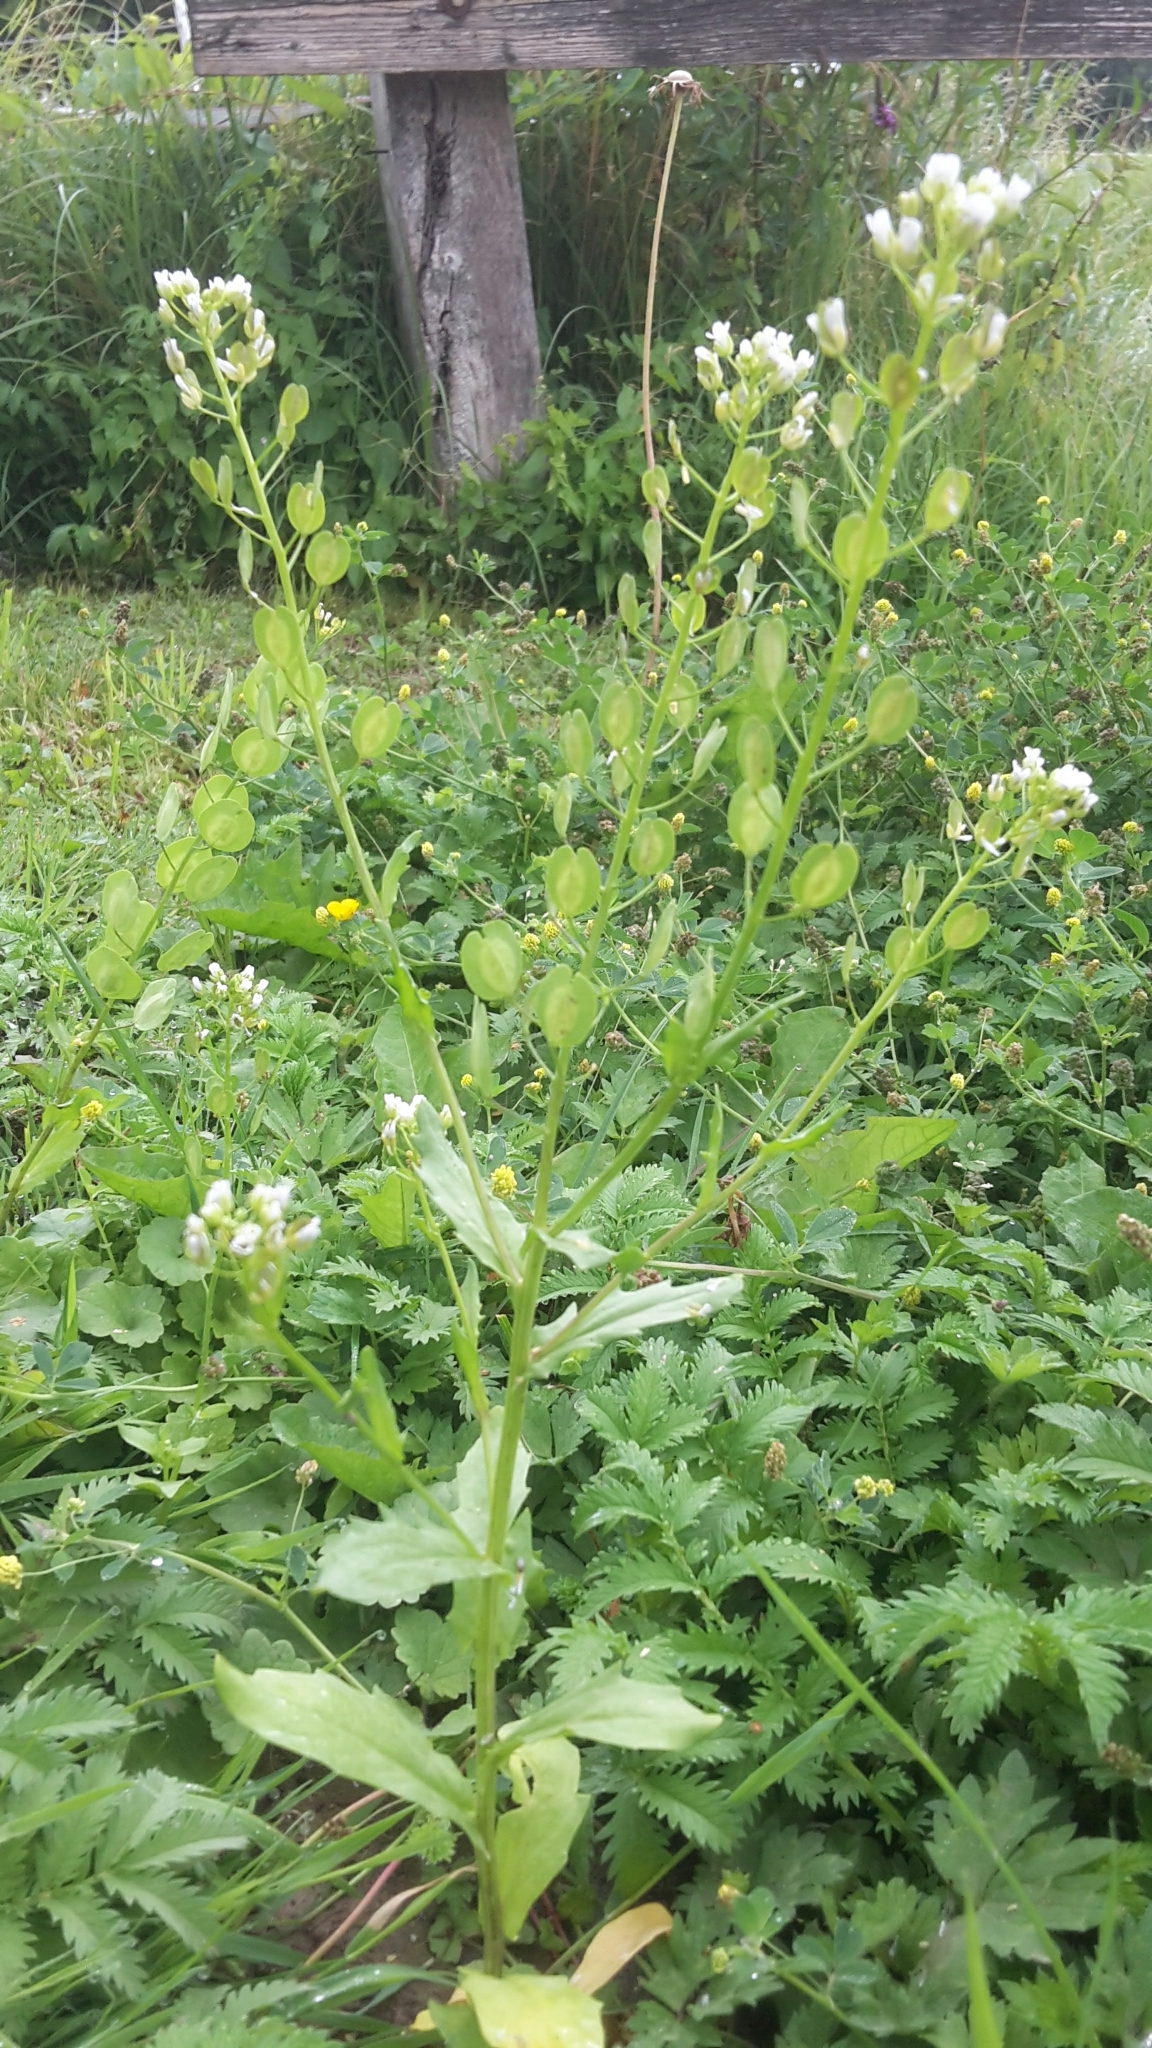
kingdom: Plantae
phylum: Tracheophyta
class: Magnoliopsida
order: Brassicales
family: Brassicaceae
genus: Thlaspi
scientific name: Thlaspi arvense
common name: Field pennycress
